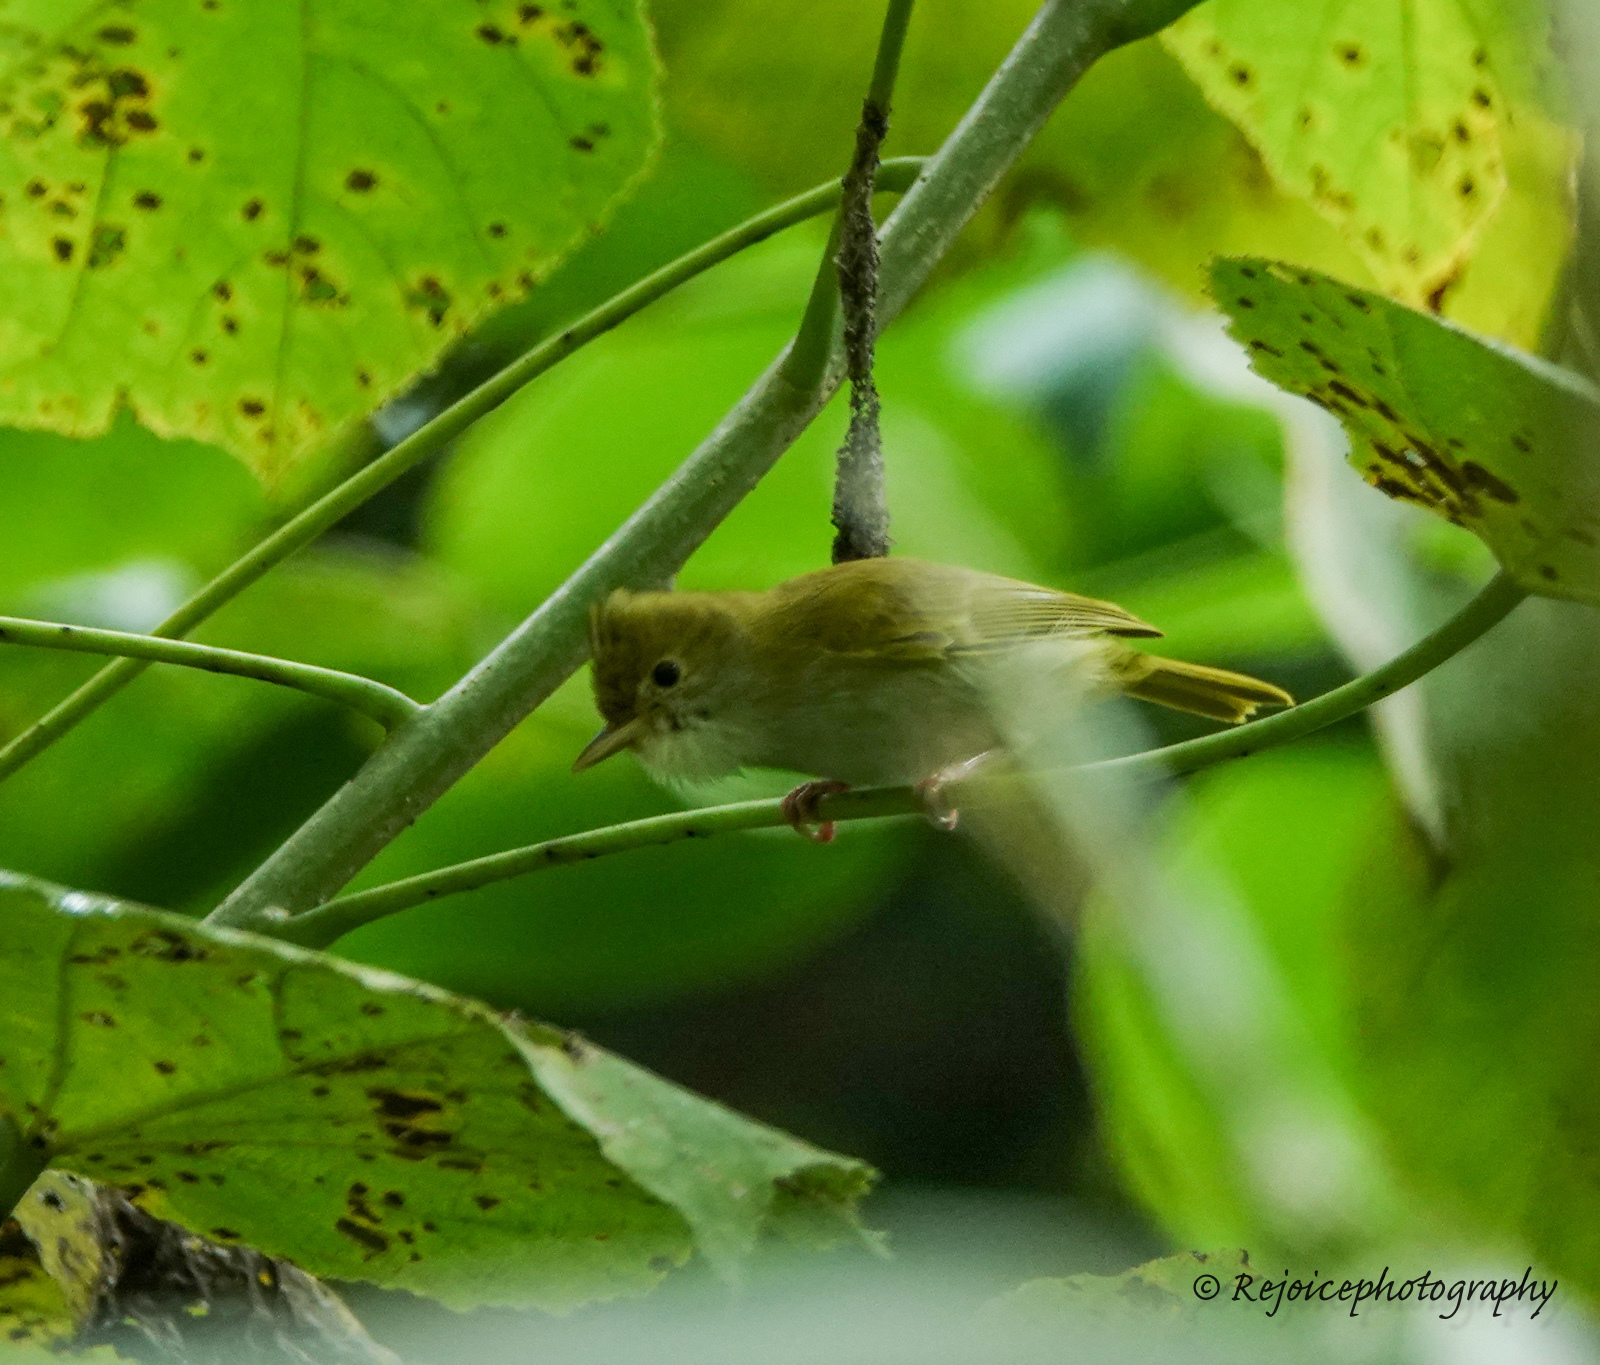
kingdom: Animalia
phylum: Chordata
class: Aves
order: Passeriformes
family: Vireonidae
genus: Erpornis
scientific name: Erpornis zantholeuca
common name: White-bellied erpornis
